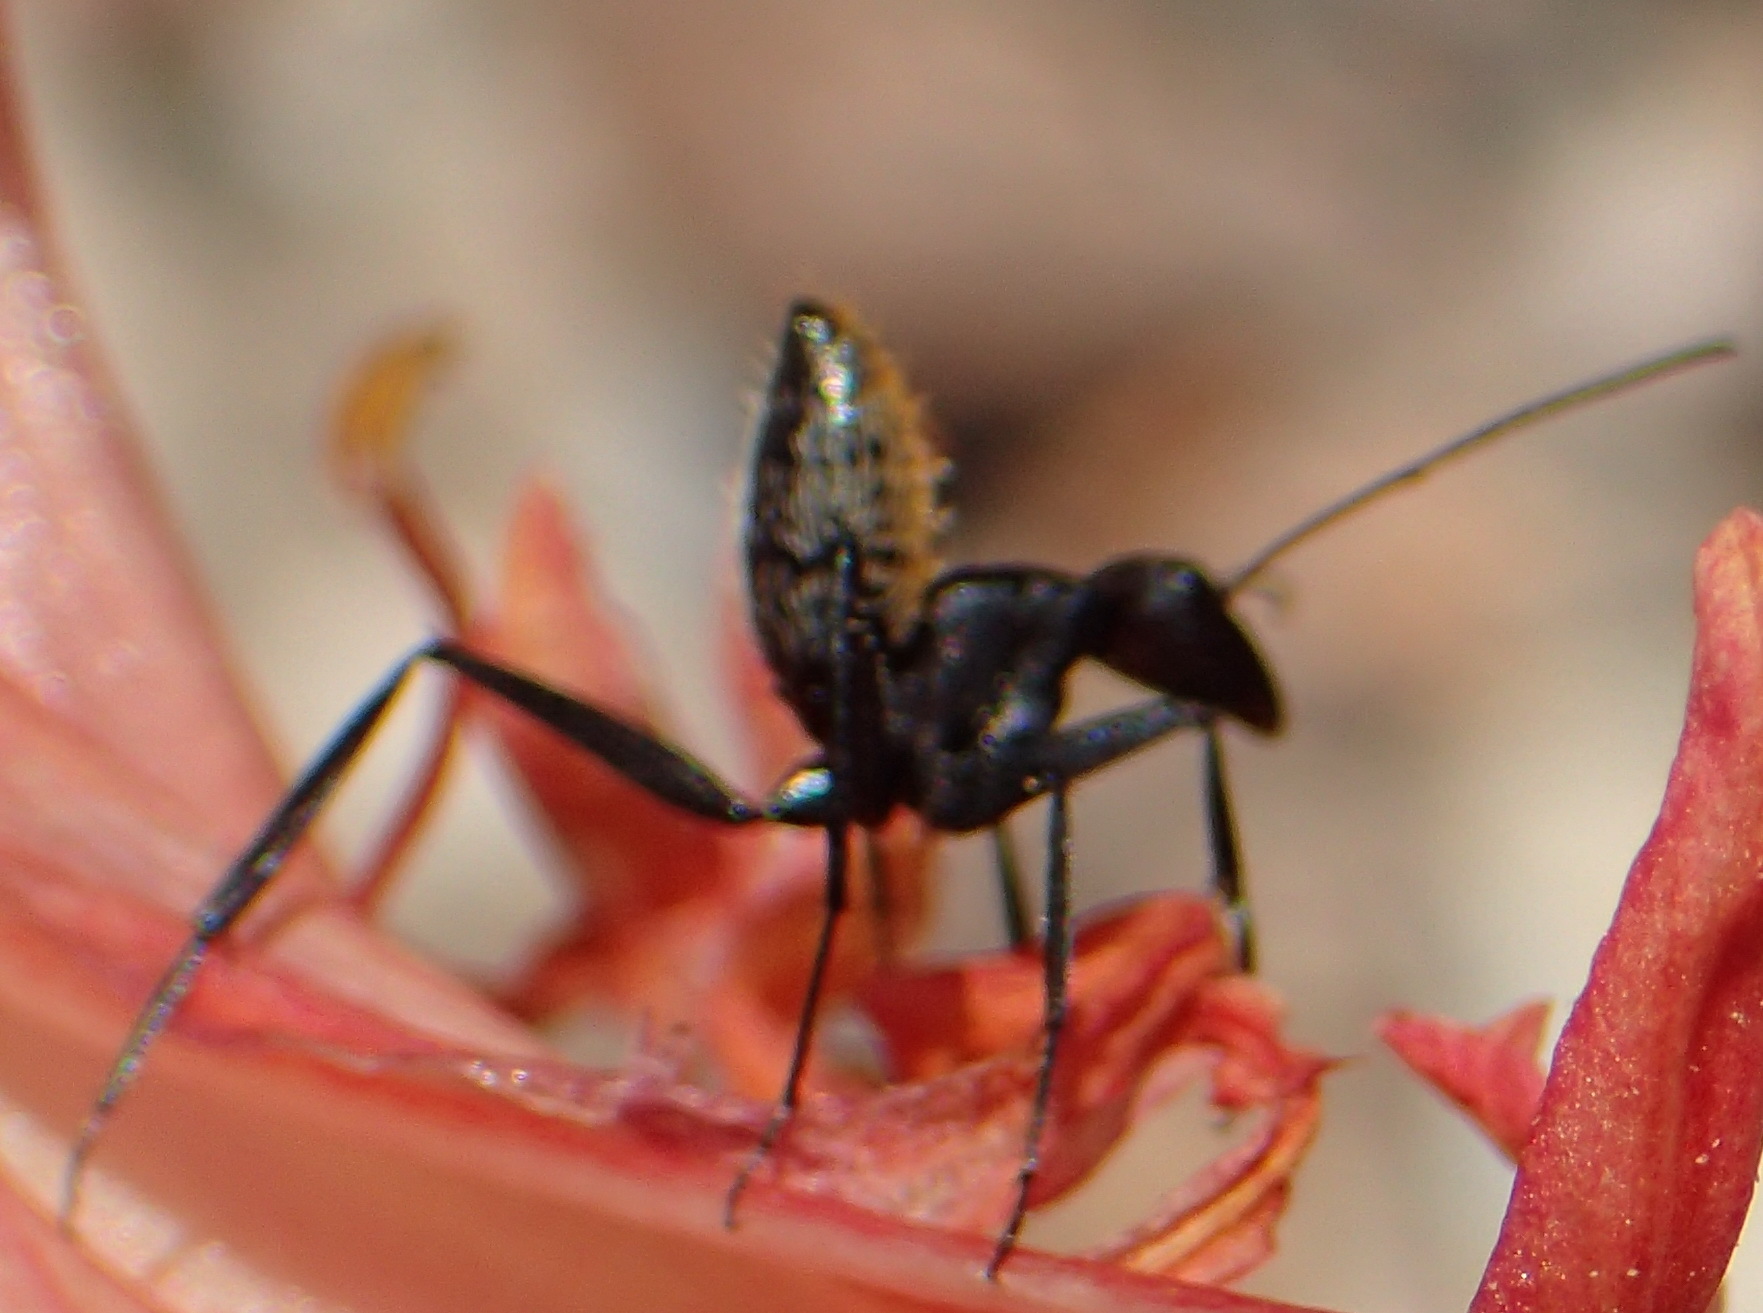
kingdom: Animalia
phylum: Arthropoda
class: Insecta
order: Hymenoptera
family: Formicidae
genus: Camponotus
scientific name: Camponotus fulvopilosus
